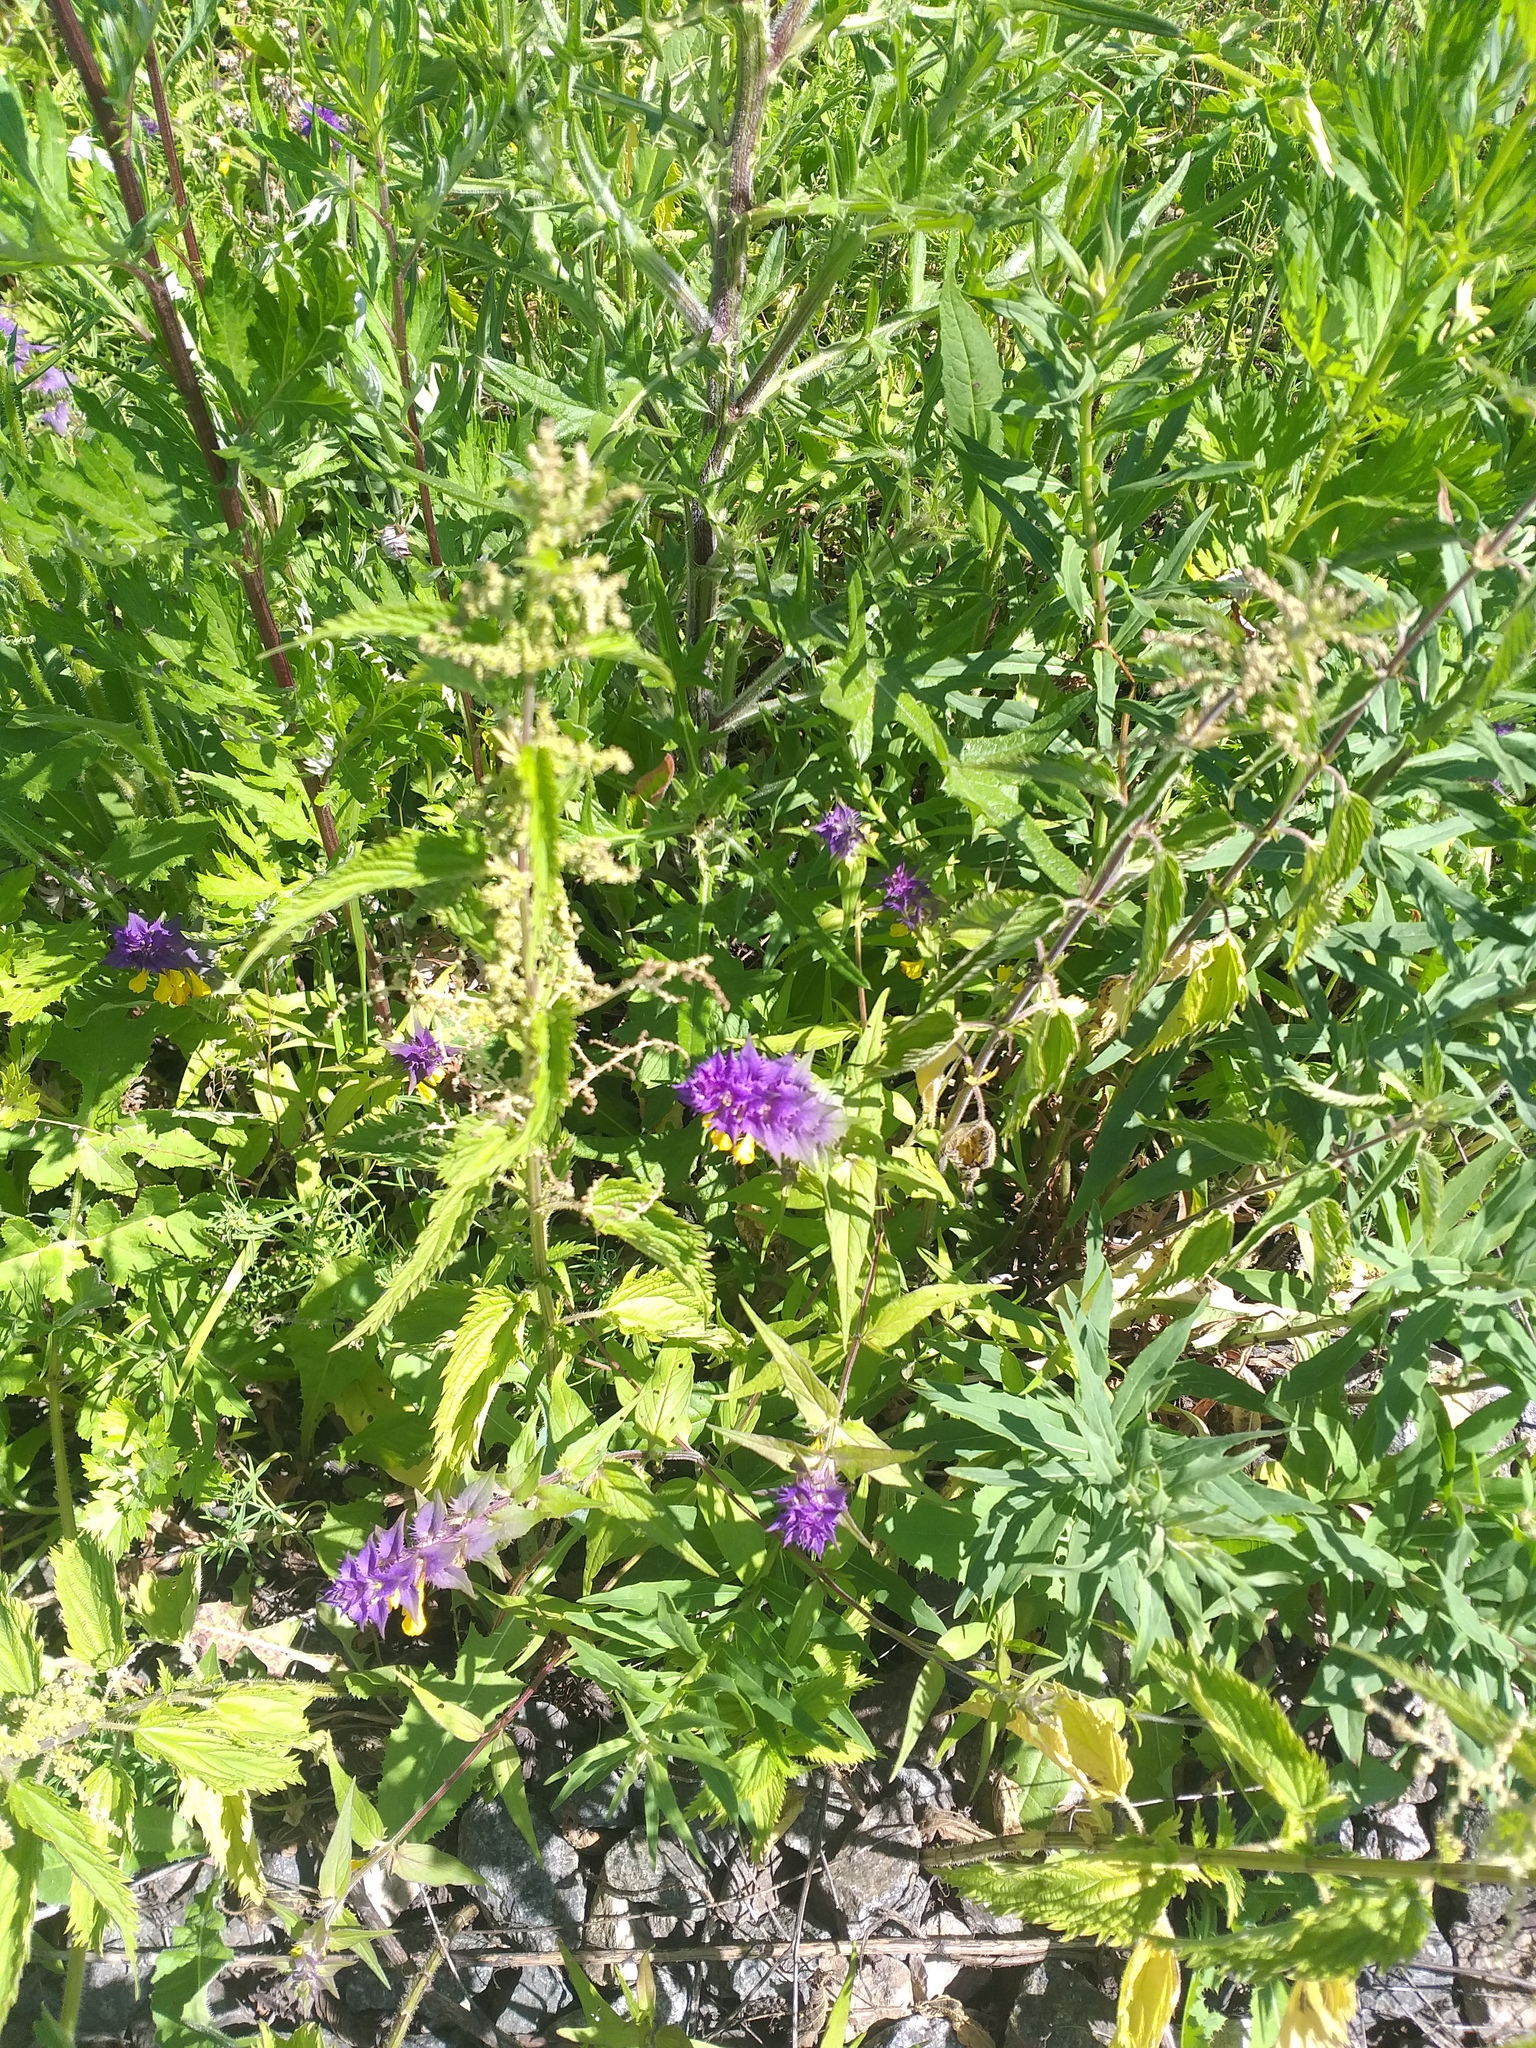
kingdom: Plantae
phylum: Tracheophyta
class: Magnoliopsida
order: Lamiales
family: Orobanchaceae
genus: Melampyrum
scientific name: Melampyrum nemorosum
